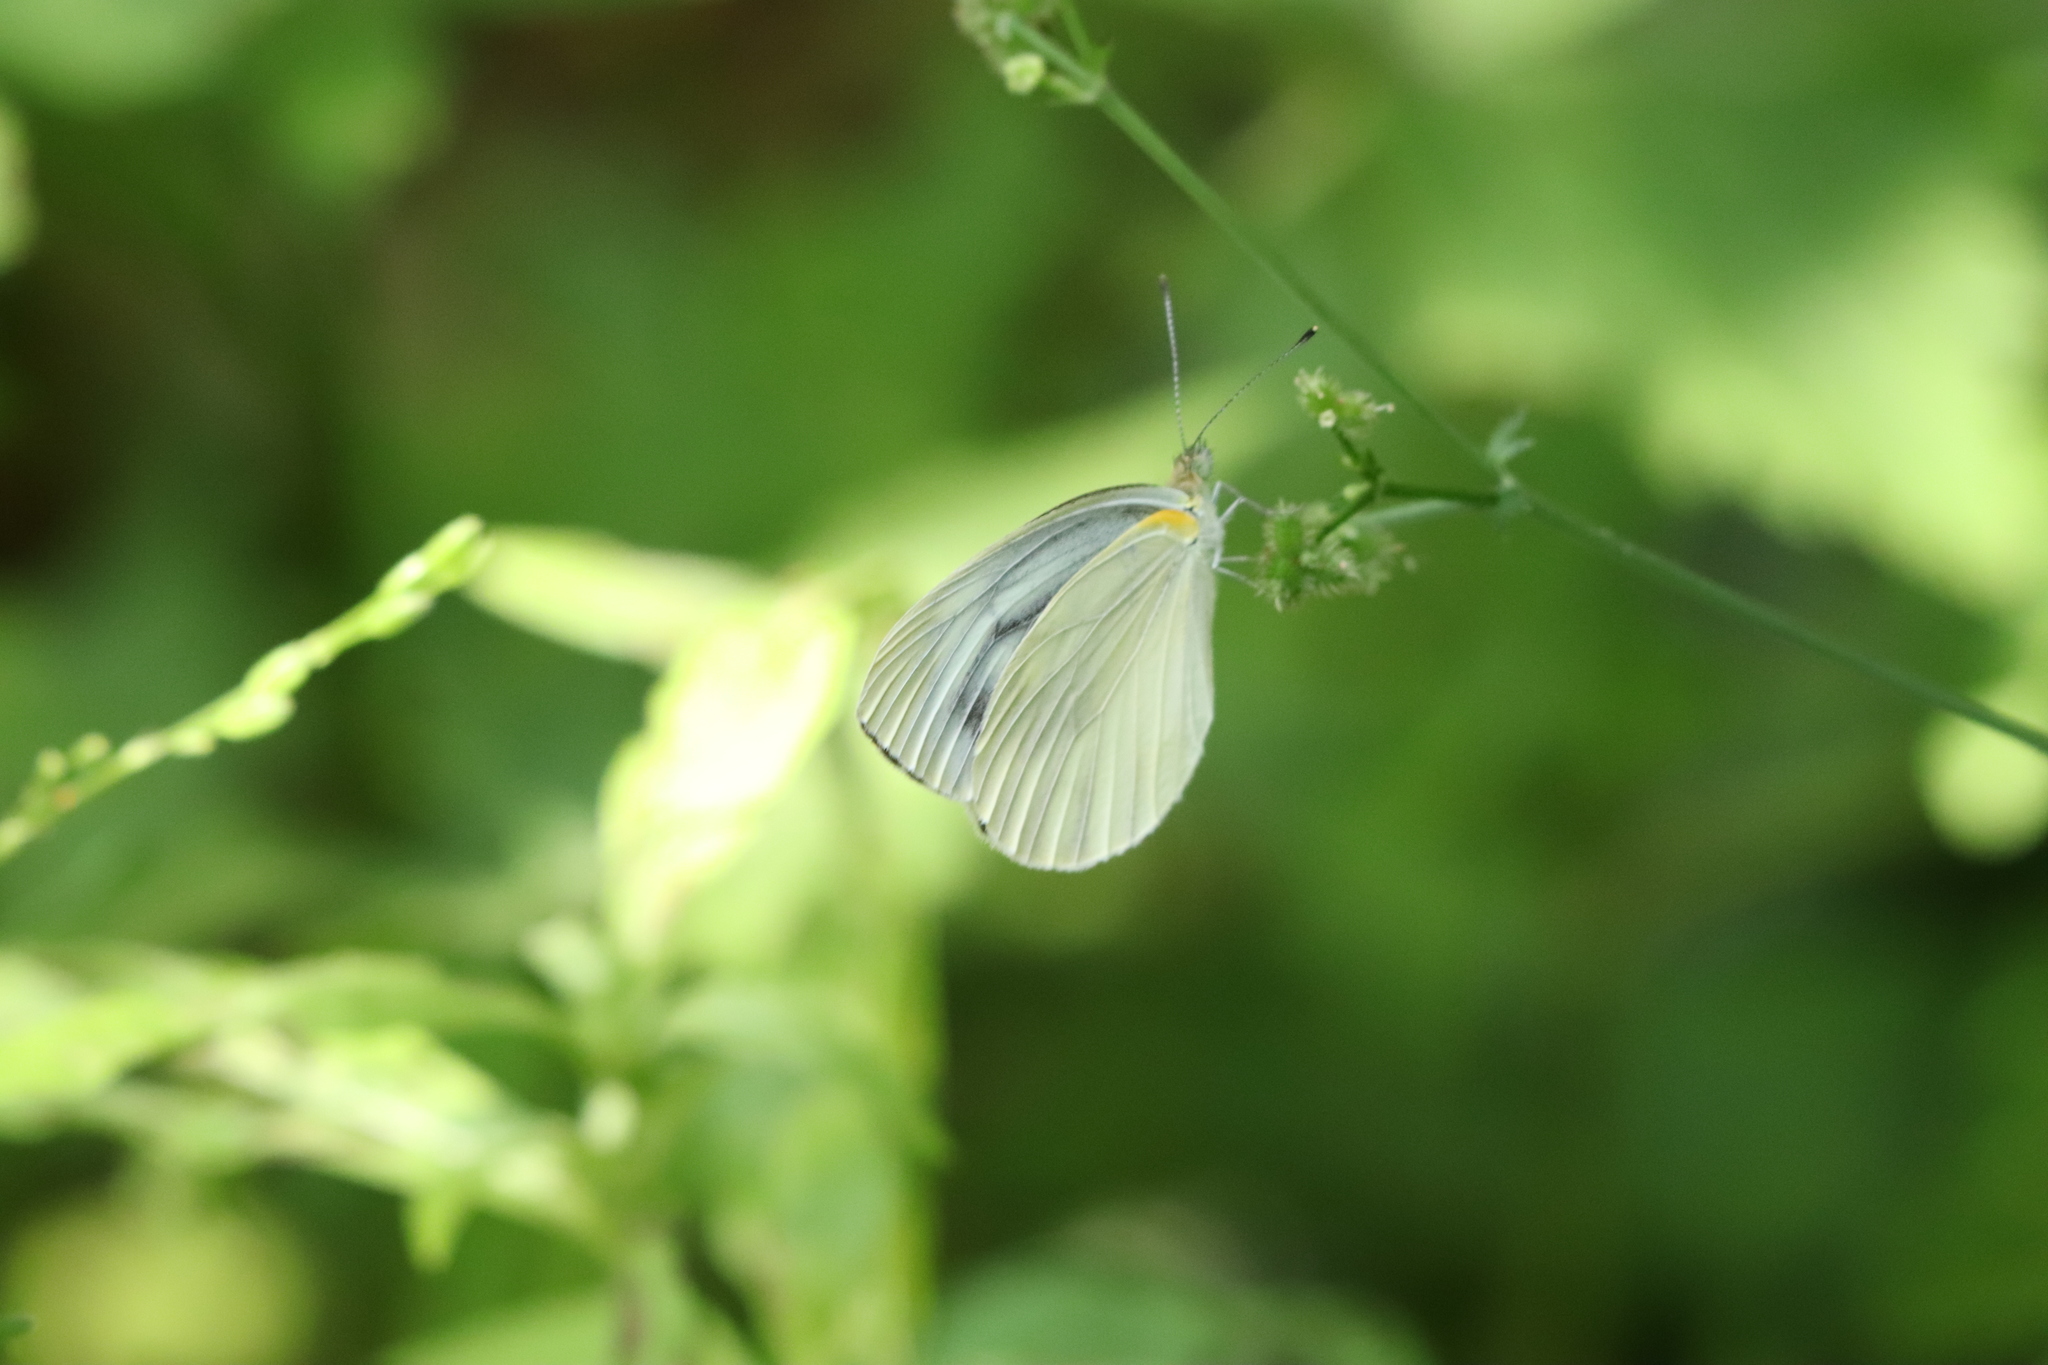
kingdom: Animalia
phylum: Arthropoda
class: Insecta
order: Lepidoptera
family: Pieridae
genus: Pieris
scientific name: Pieris melete
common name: Asian green-veined white
